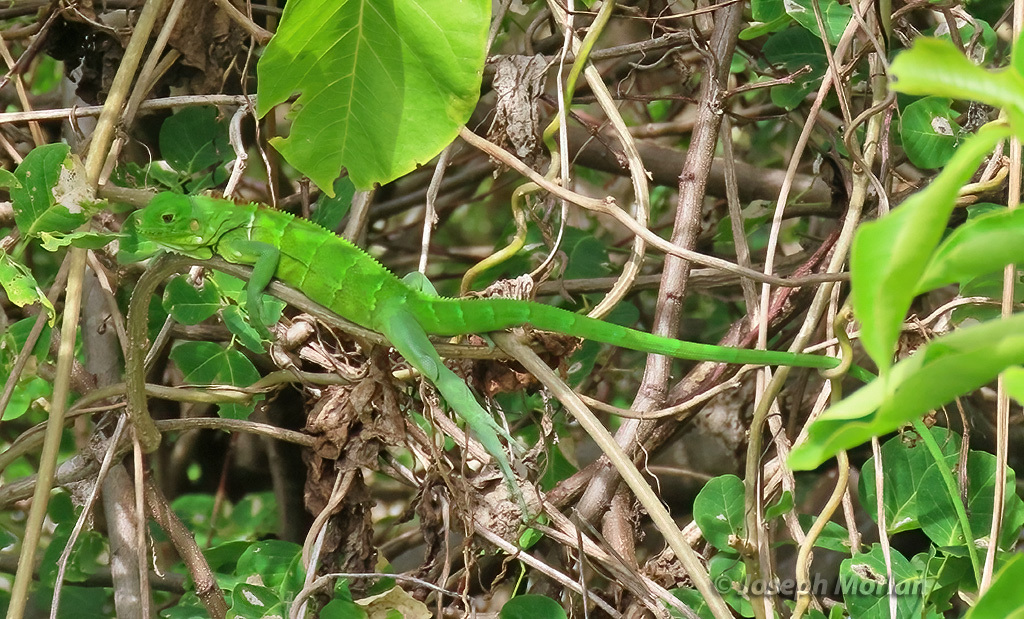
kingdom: Animalia
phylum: Chordata
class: Squamata
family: Iguanidae
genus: Iguana
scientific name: Iguana iguana
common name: Green iguana
